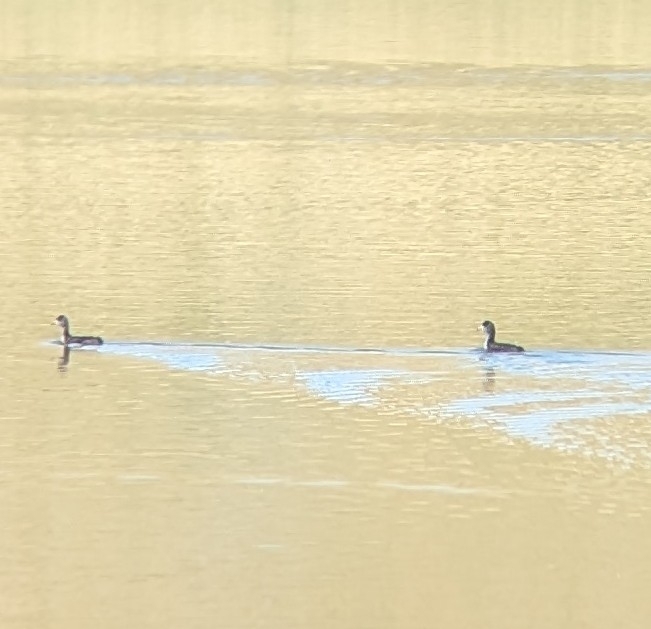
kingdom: Animalia
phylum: Chordata
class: Aves
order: Gruiformes
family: Rallidae
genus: Fulica
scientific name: Fulica americana
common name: American coot
